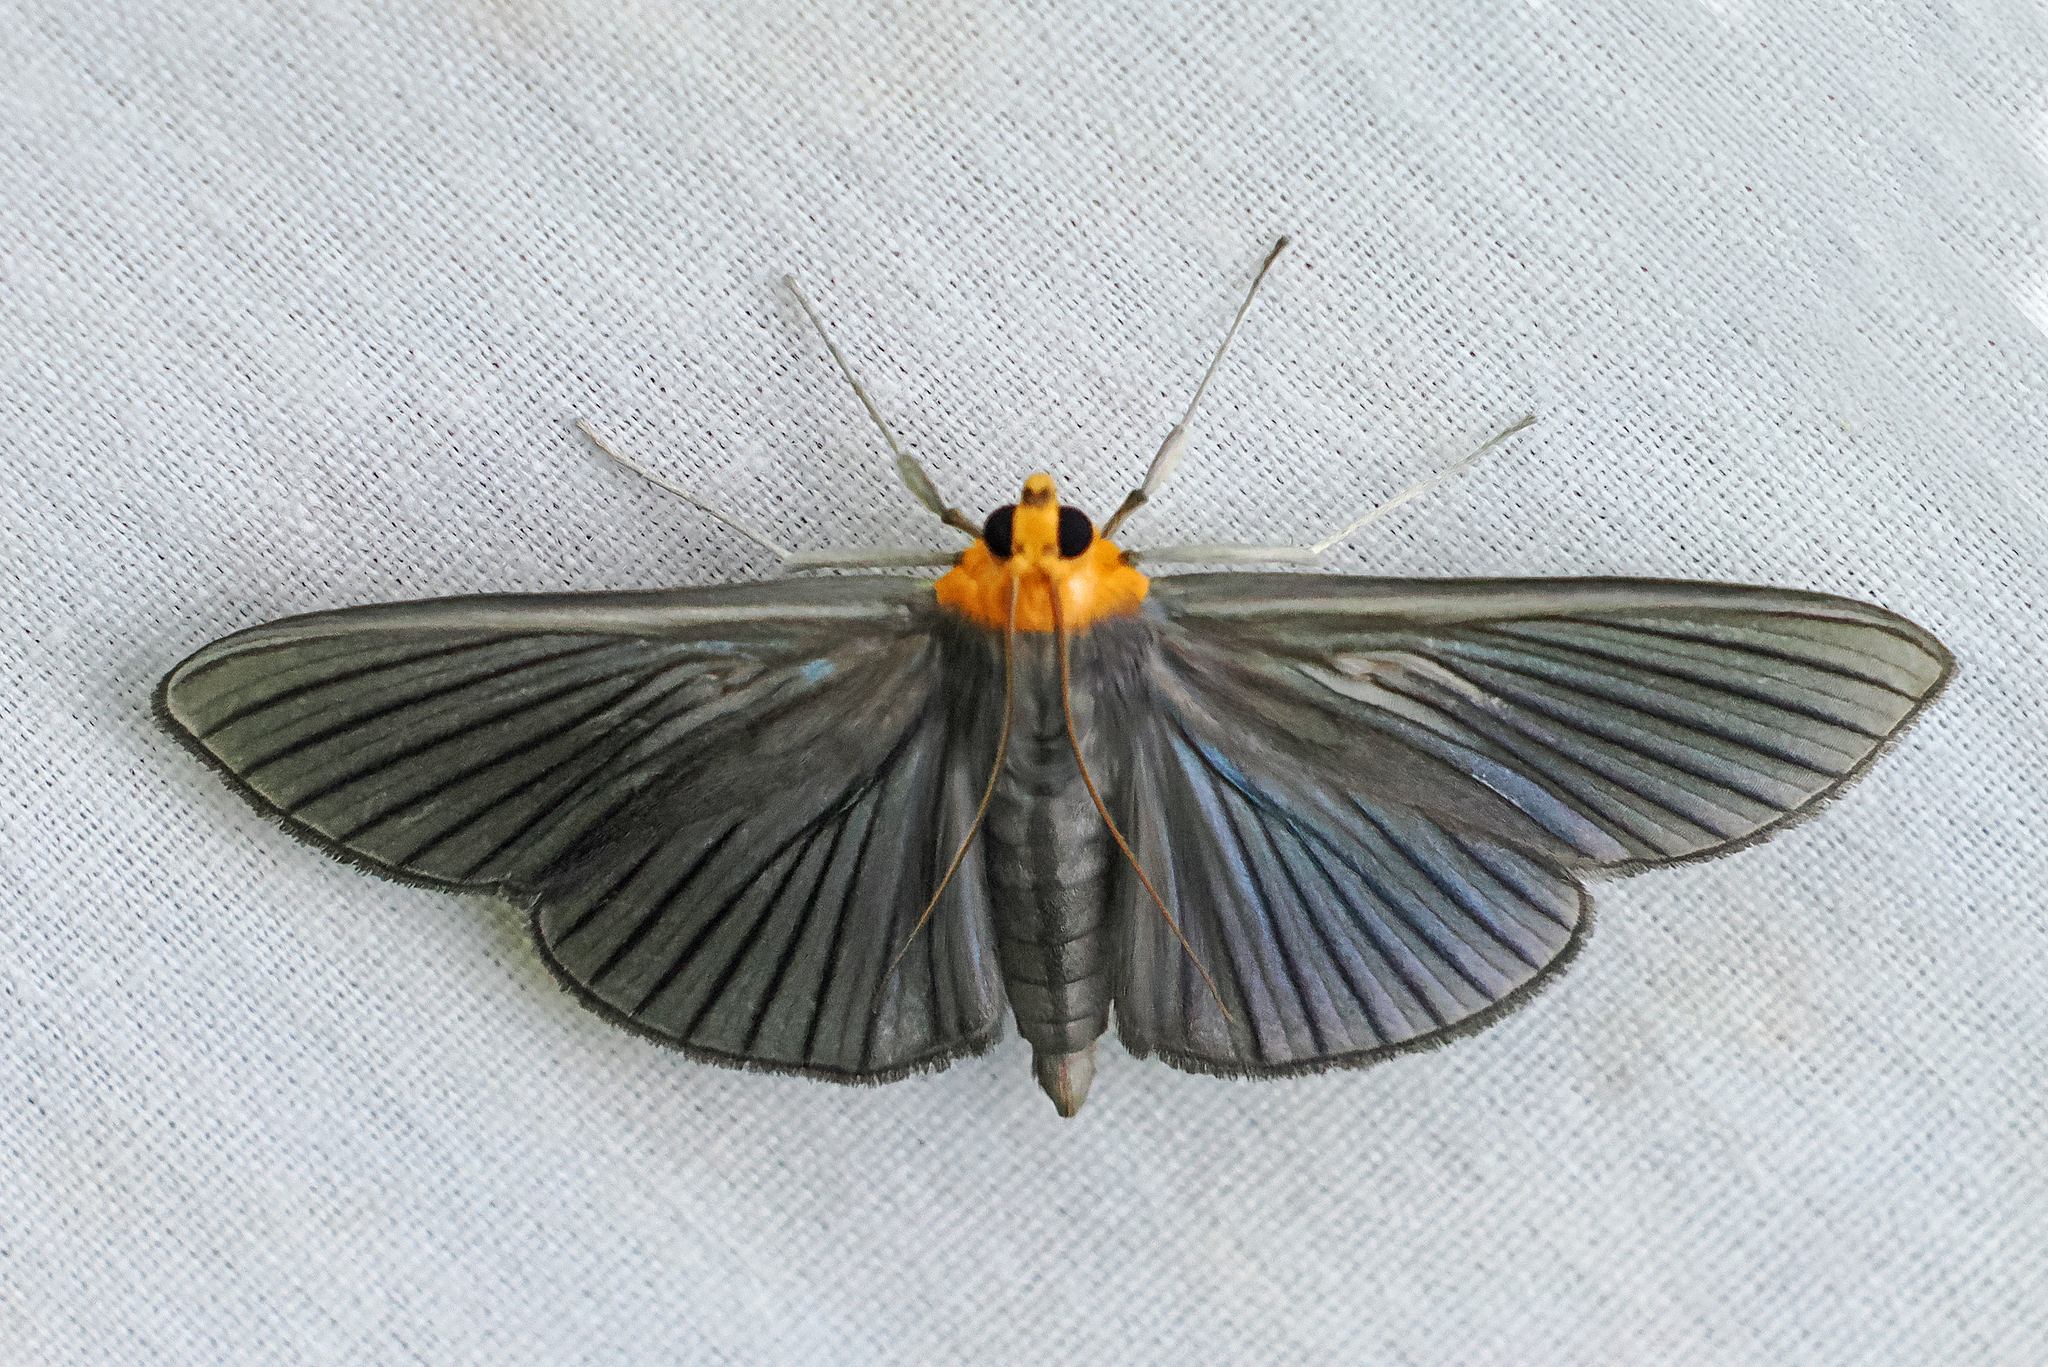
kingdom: Animalia
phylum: Arthropoda
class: Insecta
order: Lepidoptera
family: Crambidae
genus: Cirrhocephalina
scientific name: Cirrhocephalina eucharisalis
